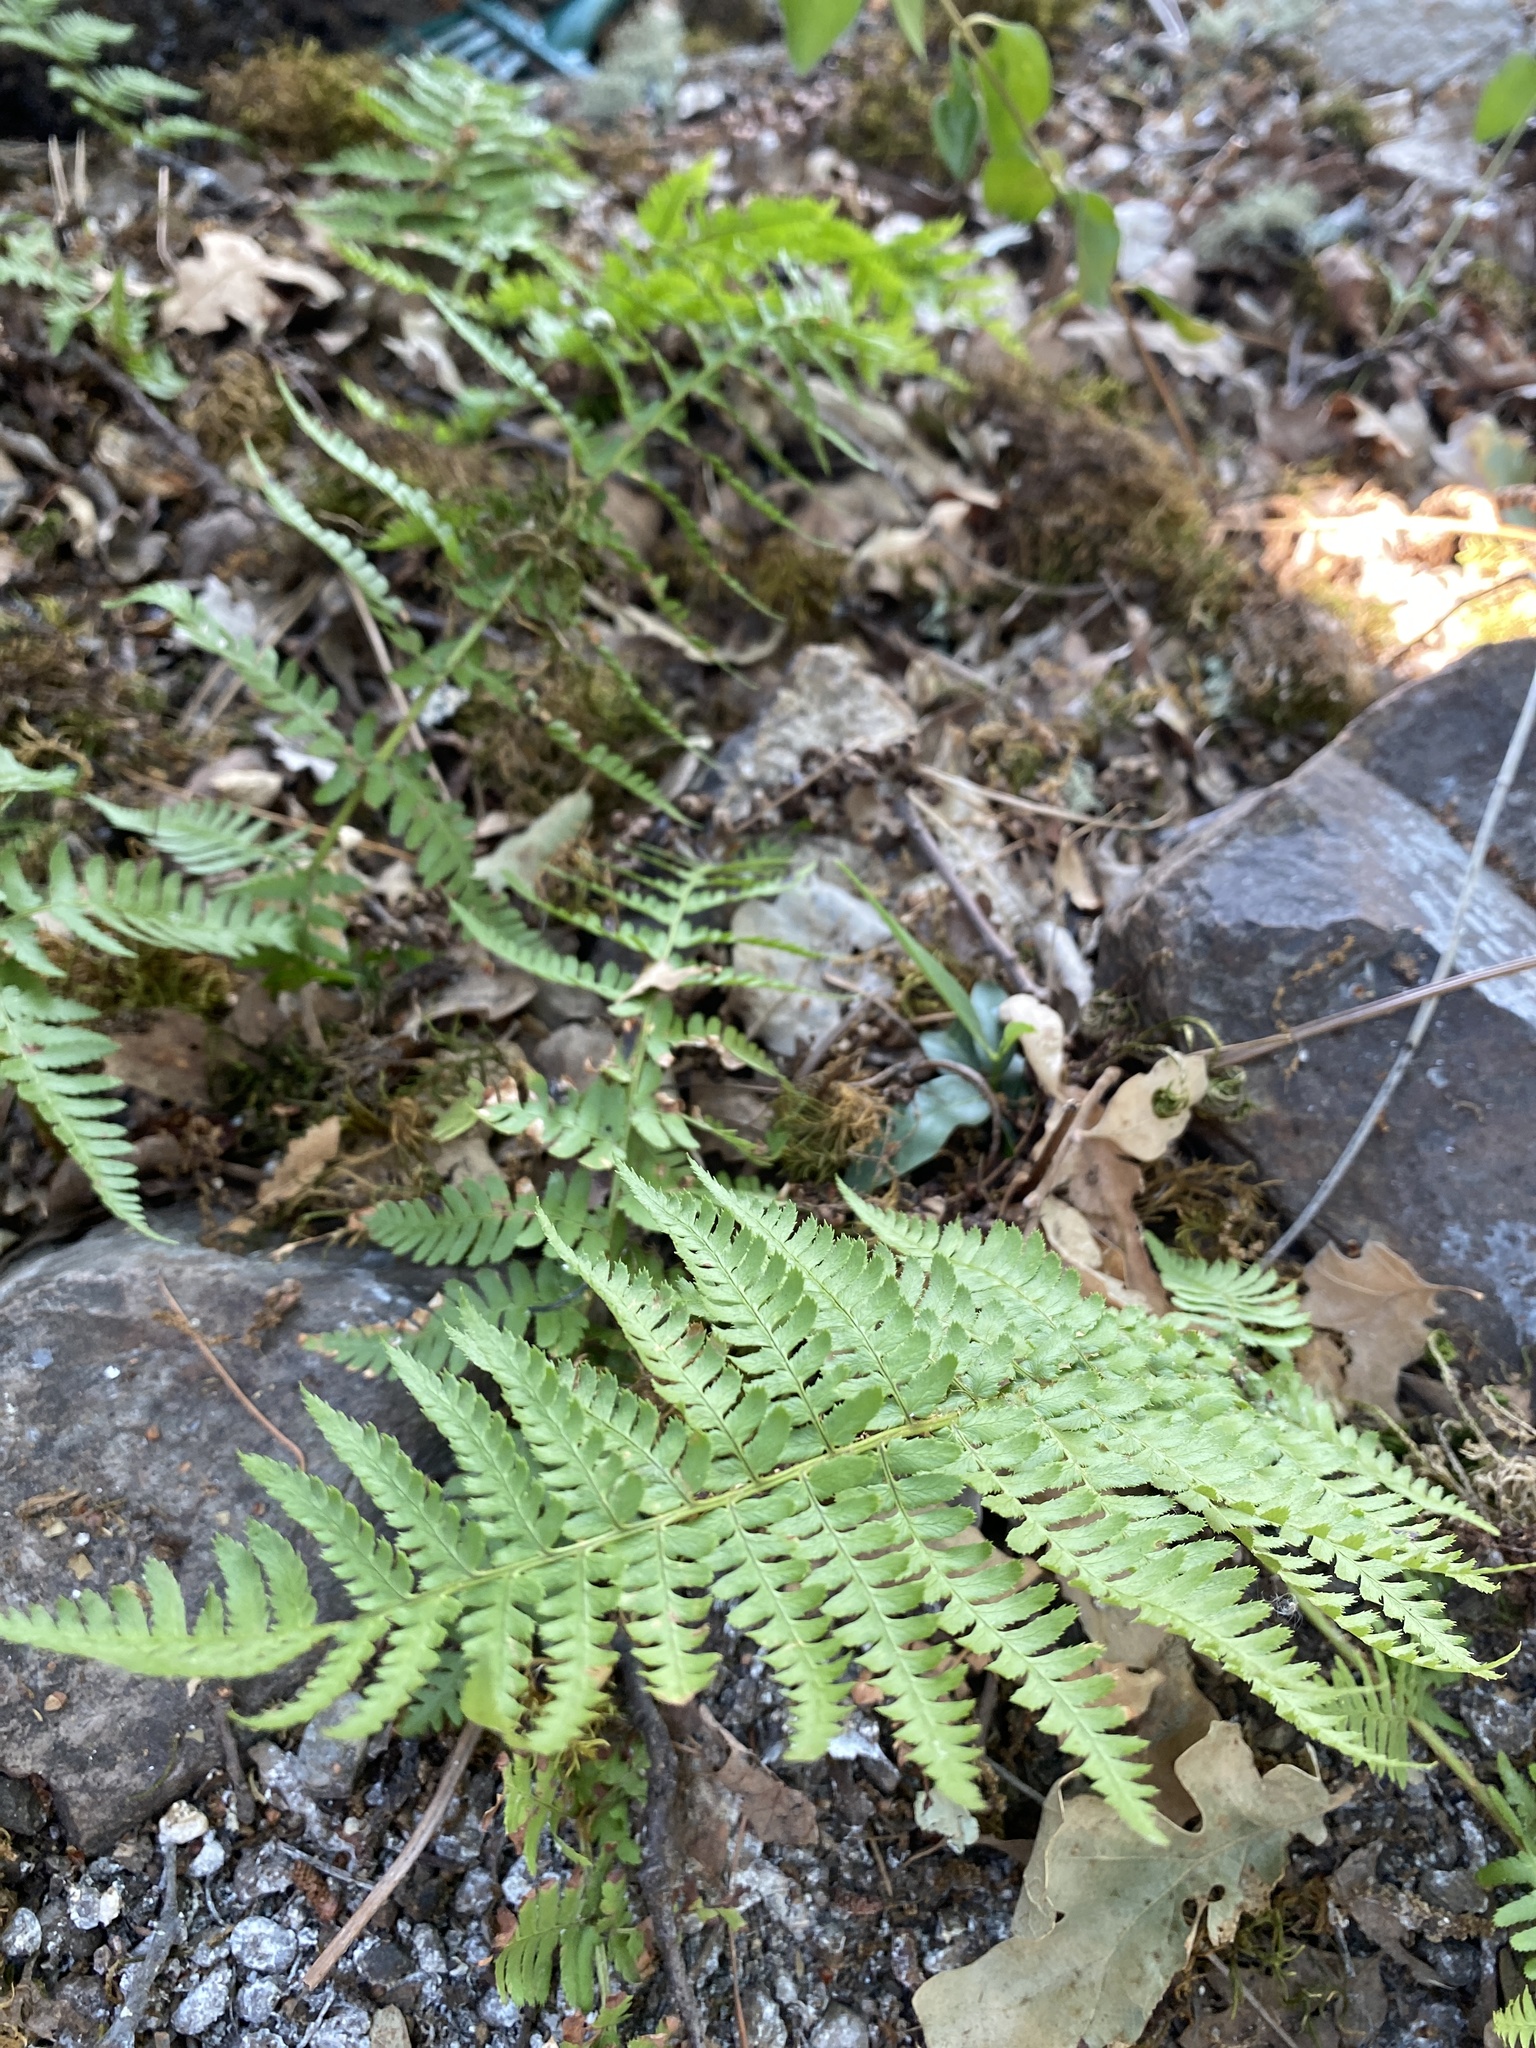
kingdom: Plantae
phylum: Tracheophyta
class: Polypodiopsida
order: Polypodiales
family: Dryopteridaceae
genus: Dryopteris
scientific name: Dryopteris arguta
